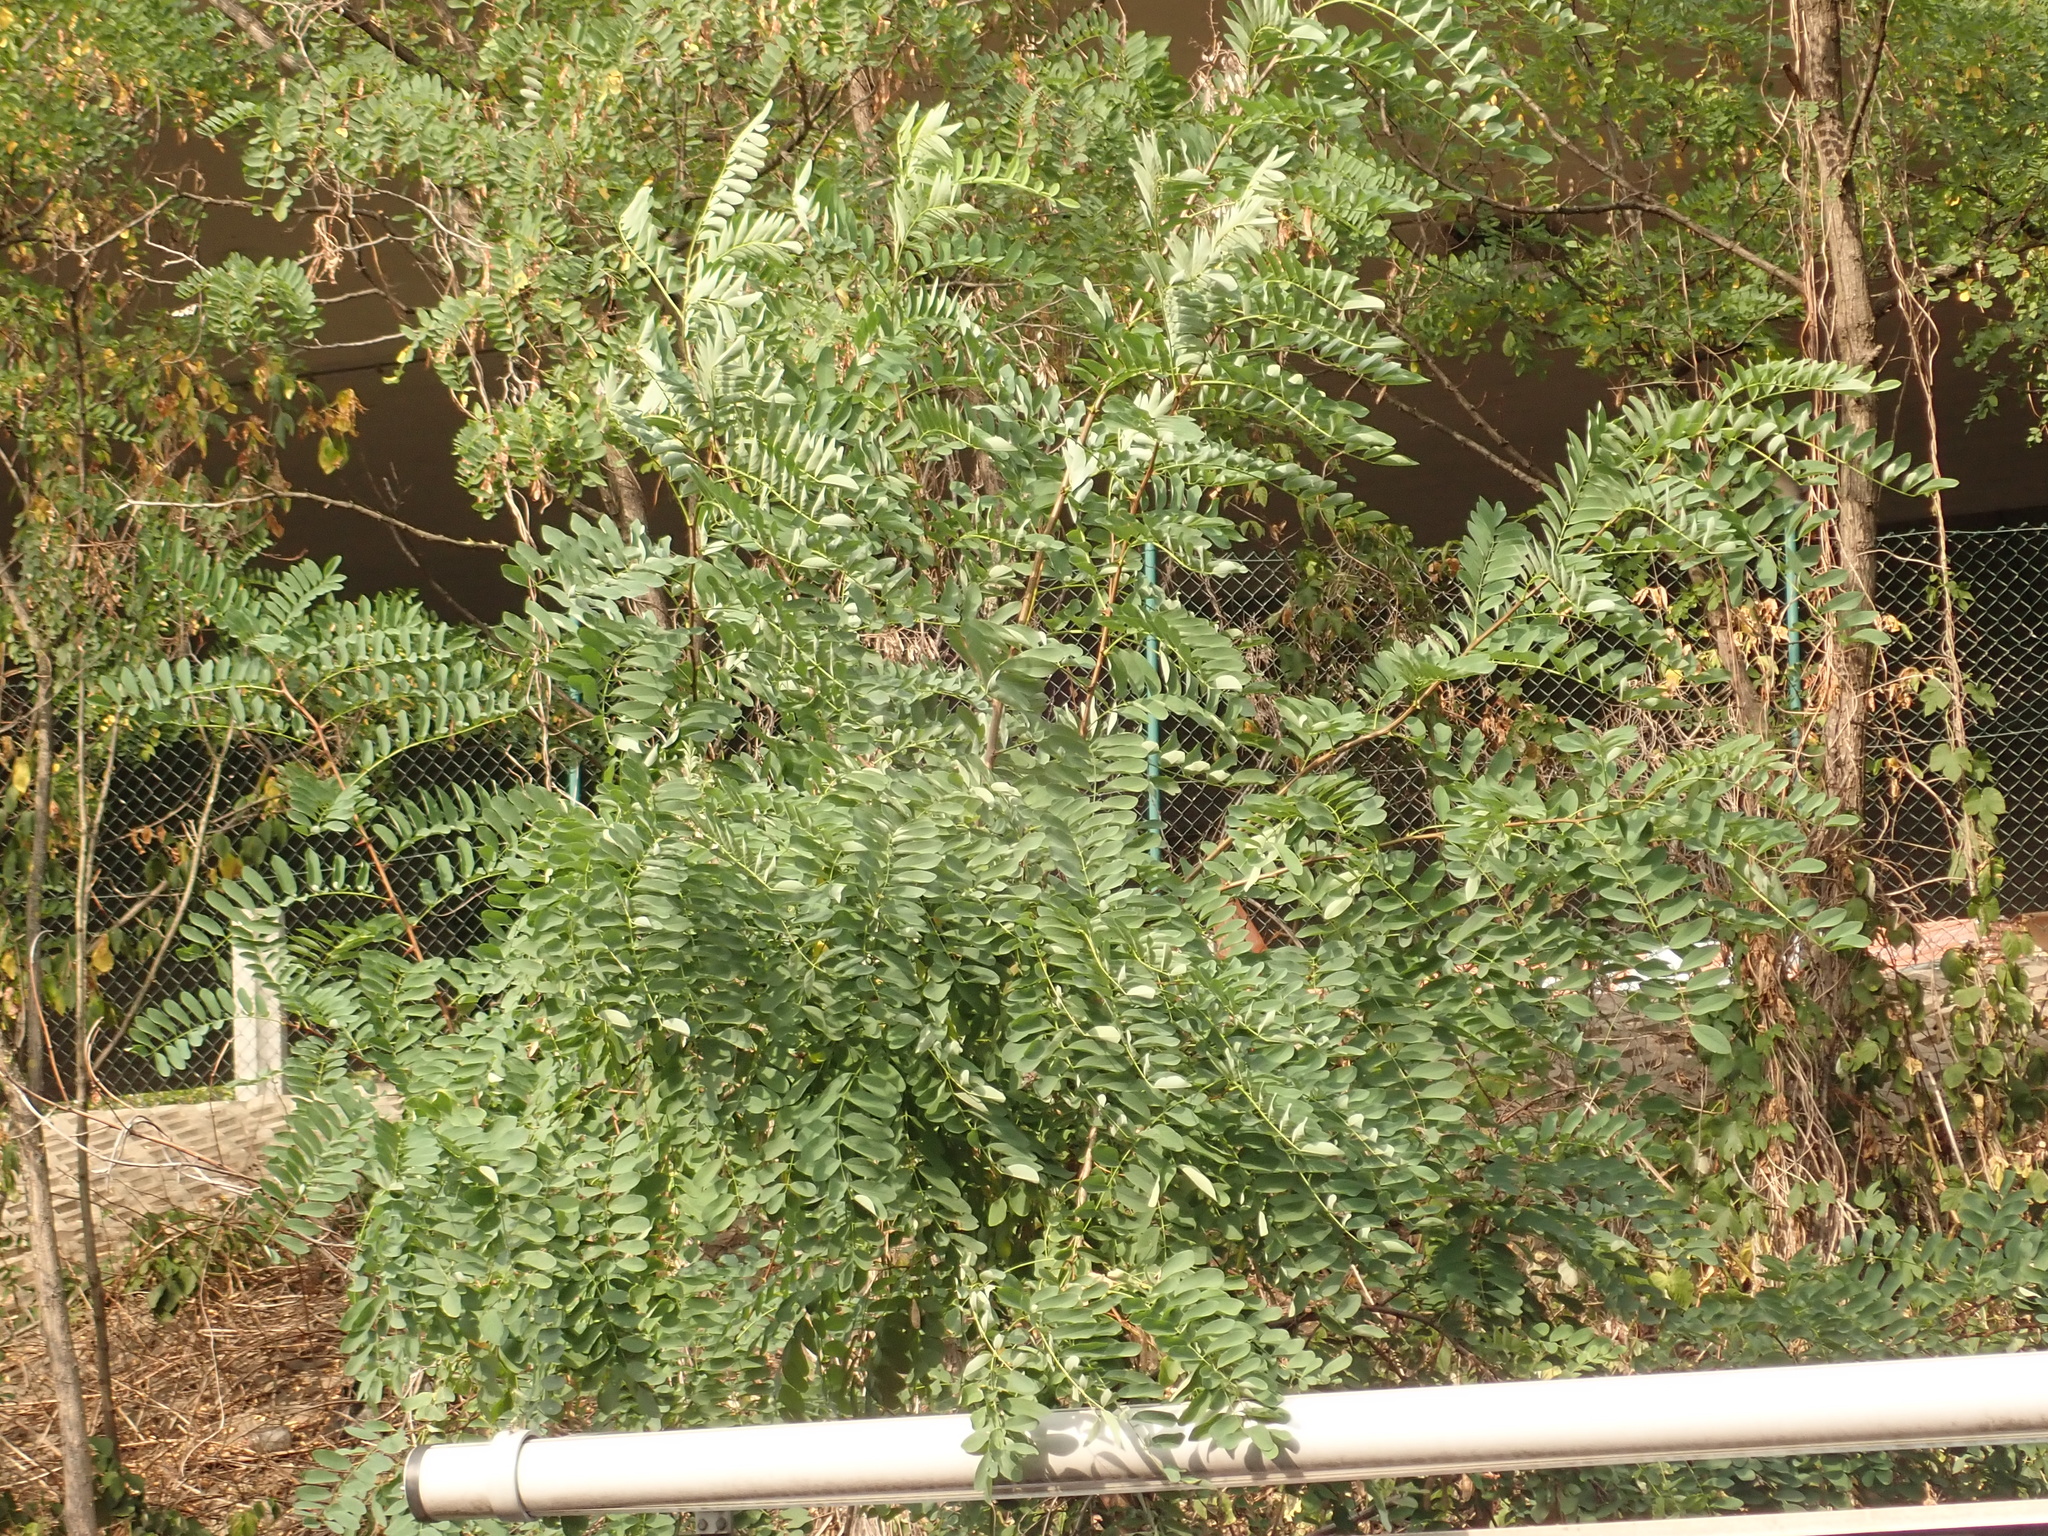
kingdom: Plantae
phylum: Tracheophyta
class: Magnoliopsida
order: Fabales
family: Fabaceae
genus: Robinia
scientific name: Robinia pseudoacacia
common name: Black locust
